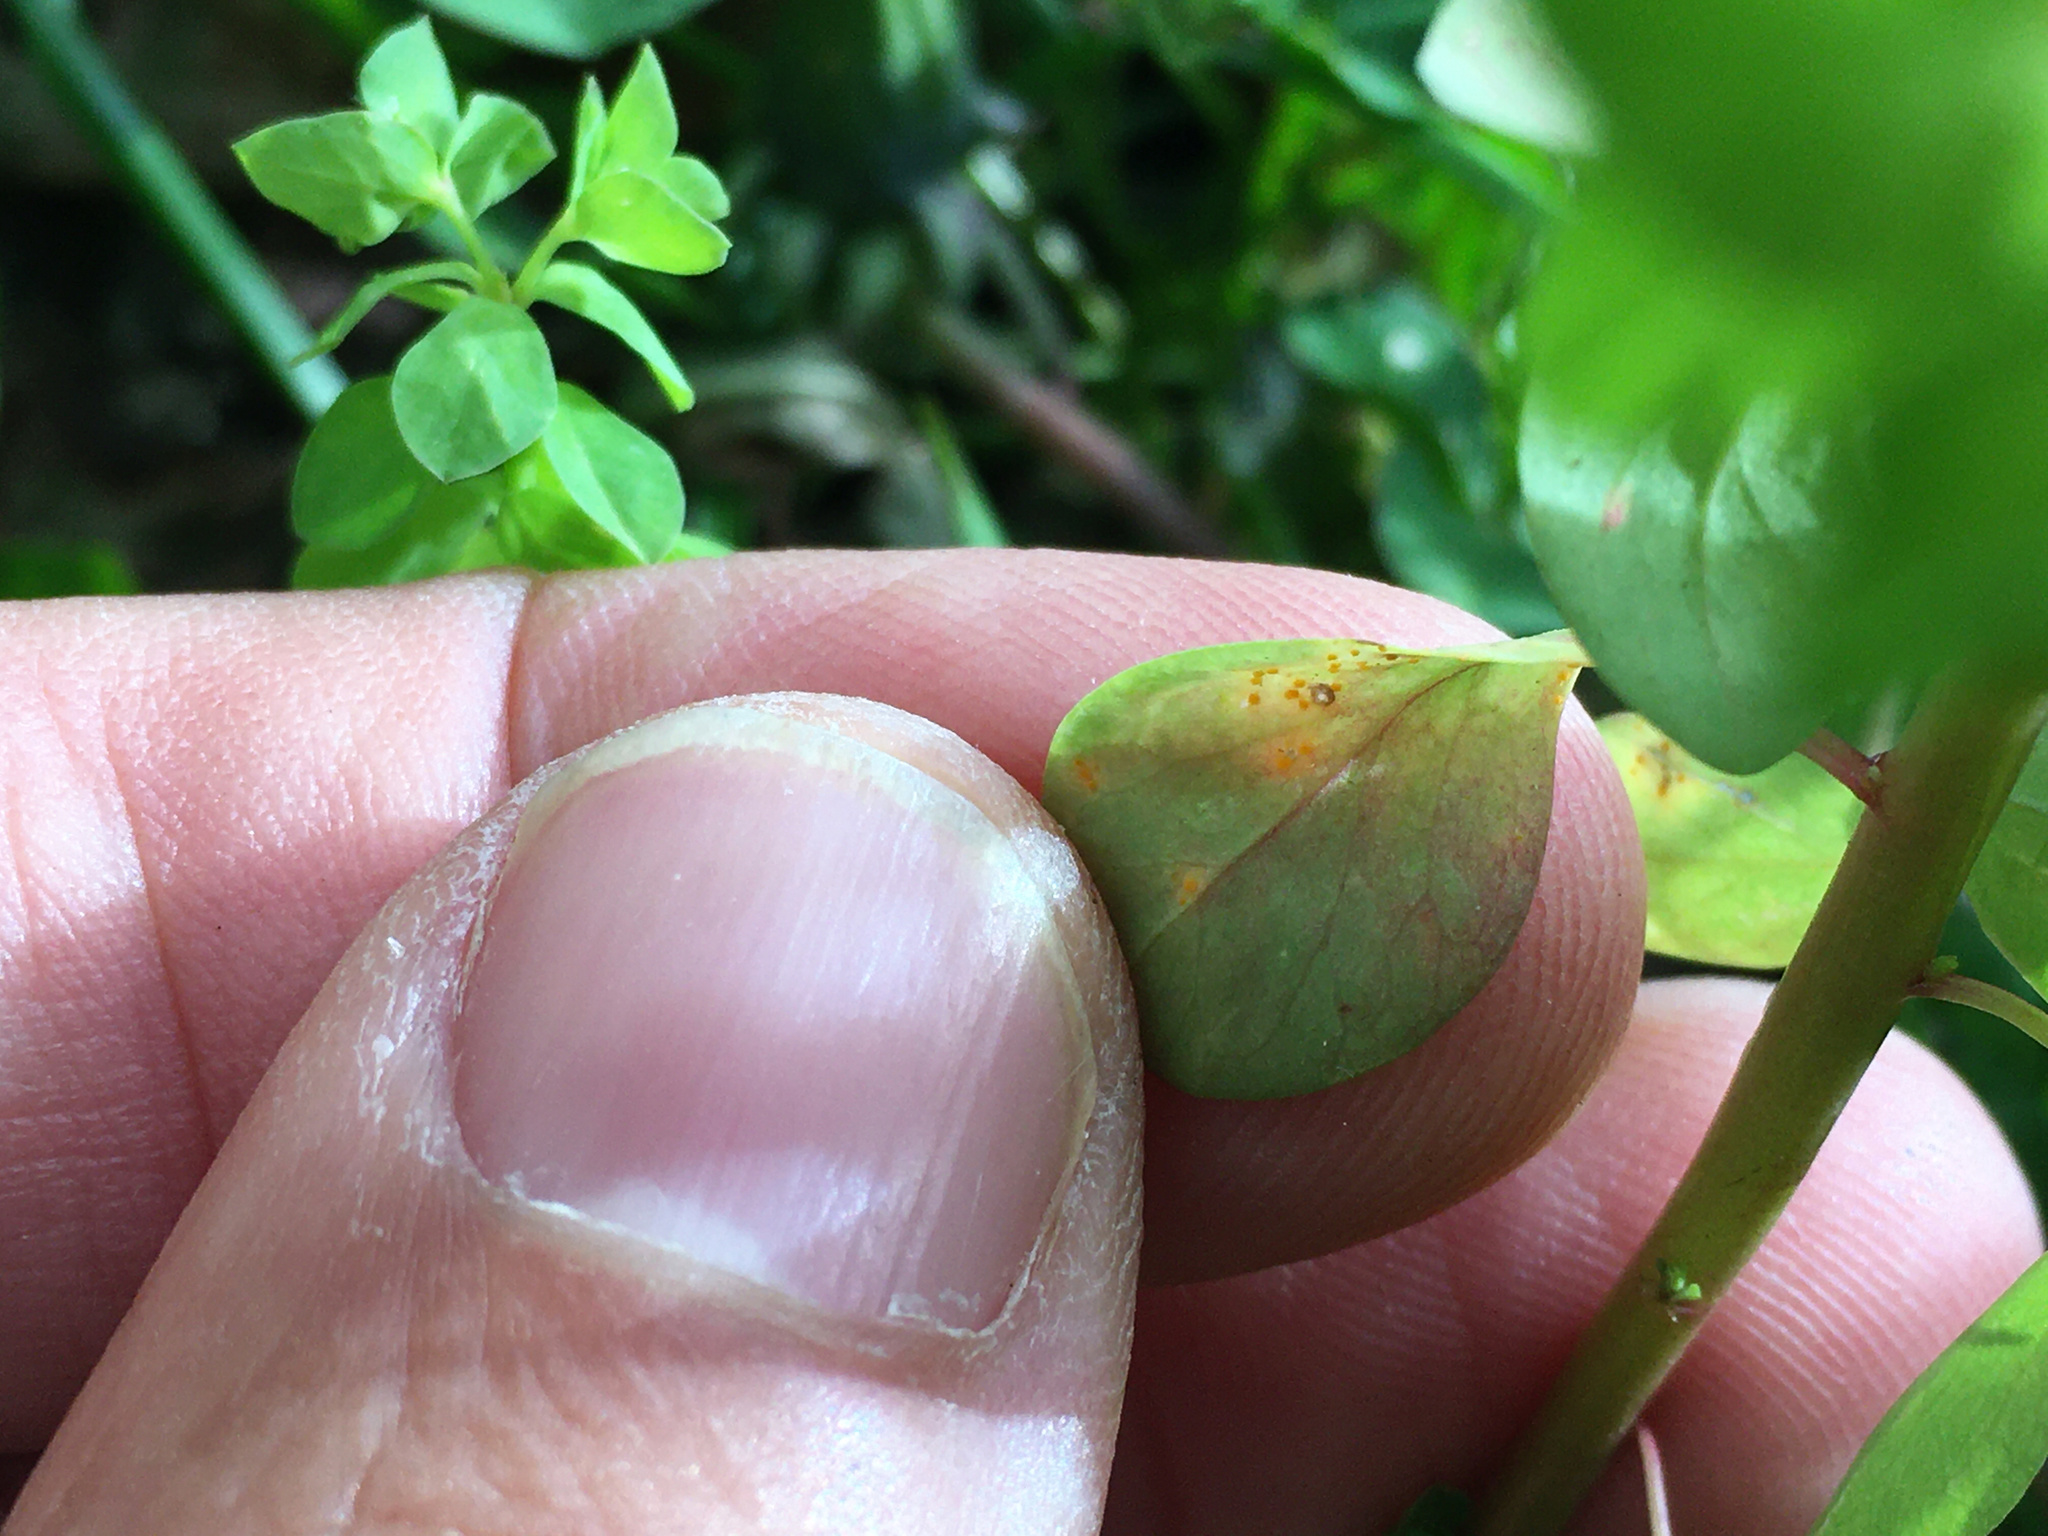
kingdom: Fungi
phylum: Basidiomycota
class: Pucciniomycetes
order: Pucciniales
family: Melampsoraceae
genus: Melampsora
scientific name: Melampsora euphorbiae
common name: Spurge rust
